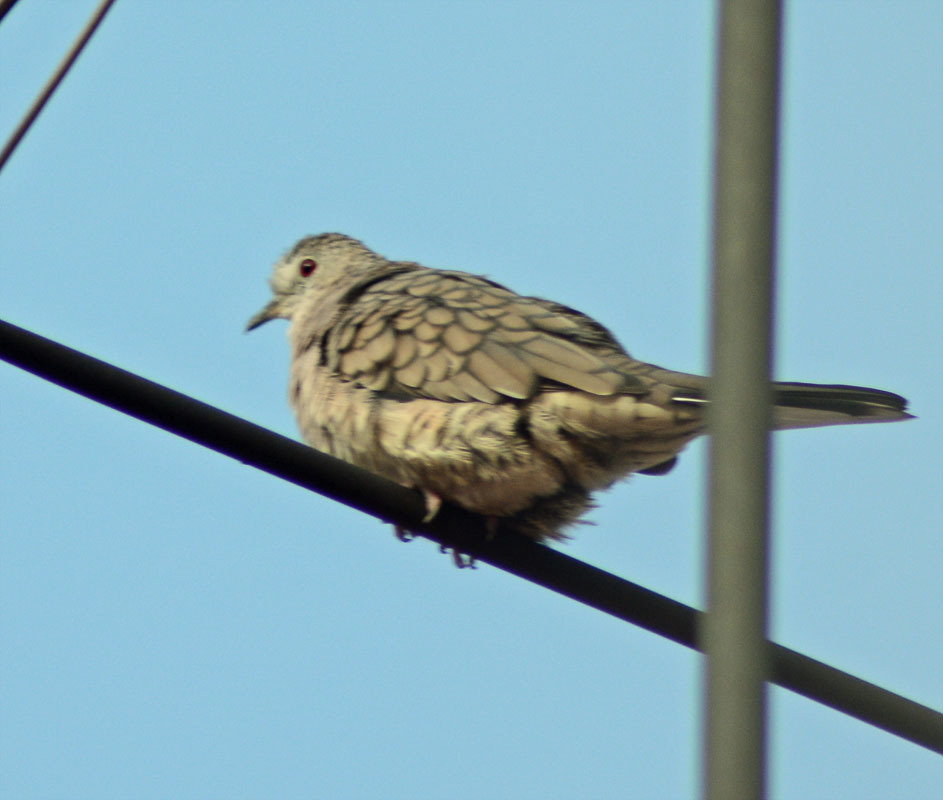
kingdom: Animalia
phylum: Chordata
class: Aves
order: Columbiformes
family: Columbidae
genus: Columbina
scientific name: Columbina inca
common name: Inca dove
